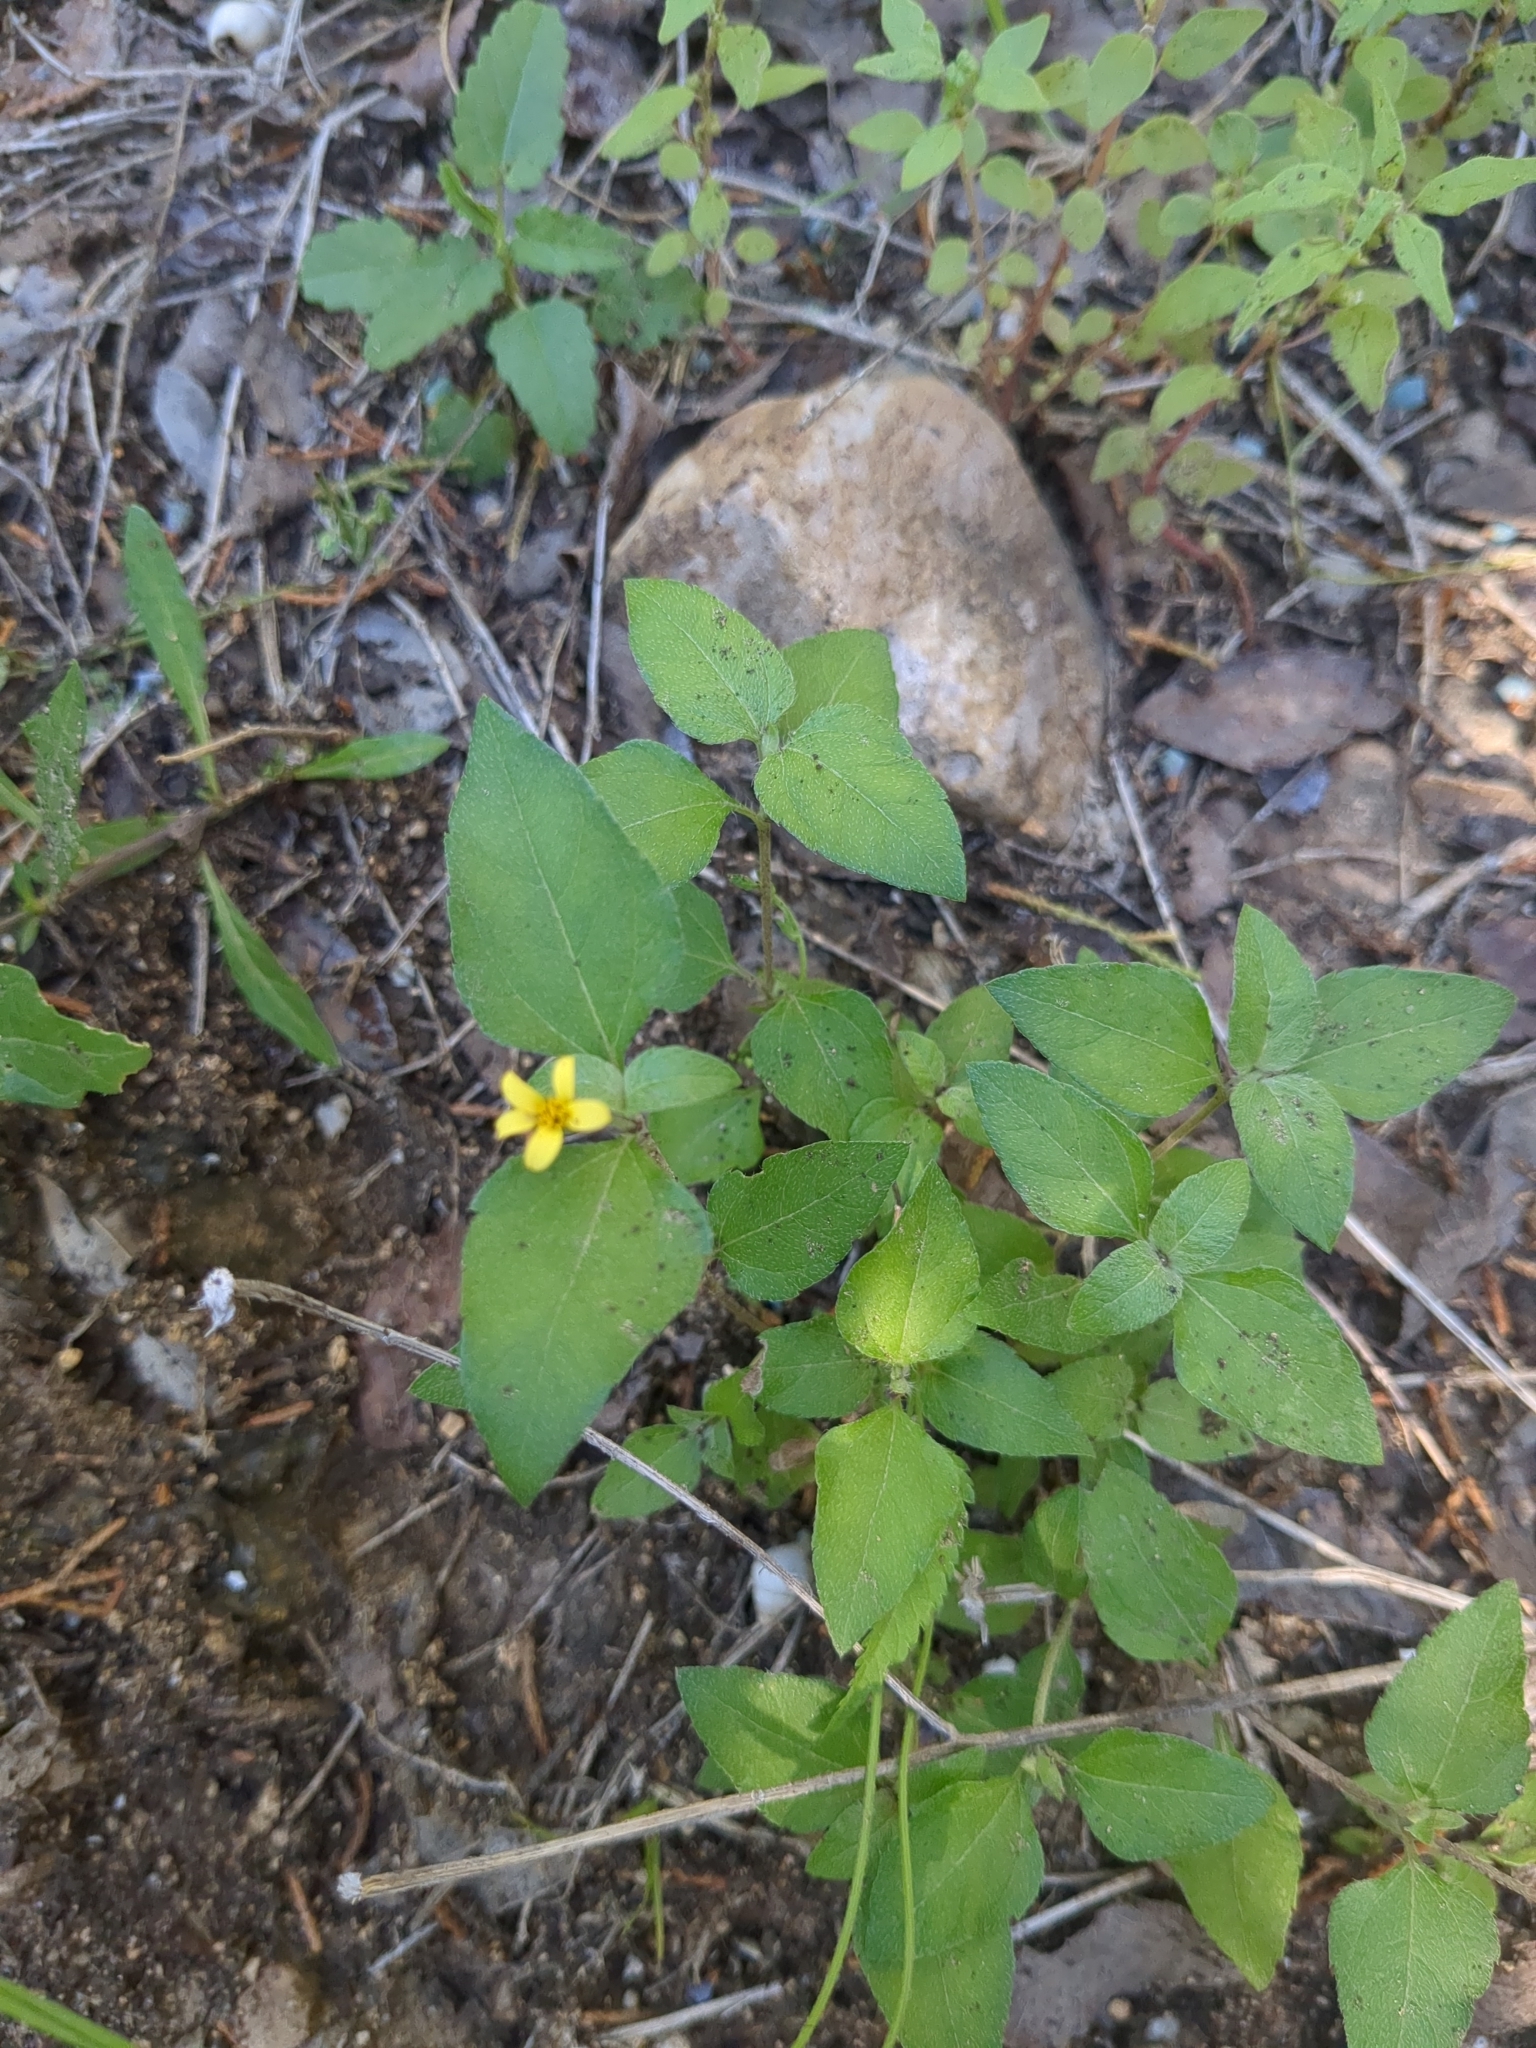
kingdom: Plantae
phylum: Tracheophyta
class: Magnoliopsida
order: Asterales
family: Asteraceae
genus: Calyptocarpus
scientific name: Calyptocarpus vialis
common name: Straggler daisy
